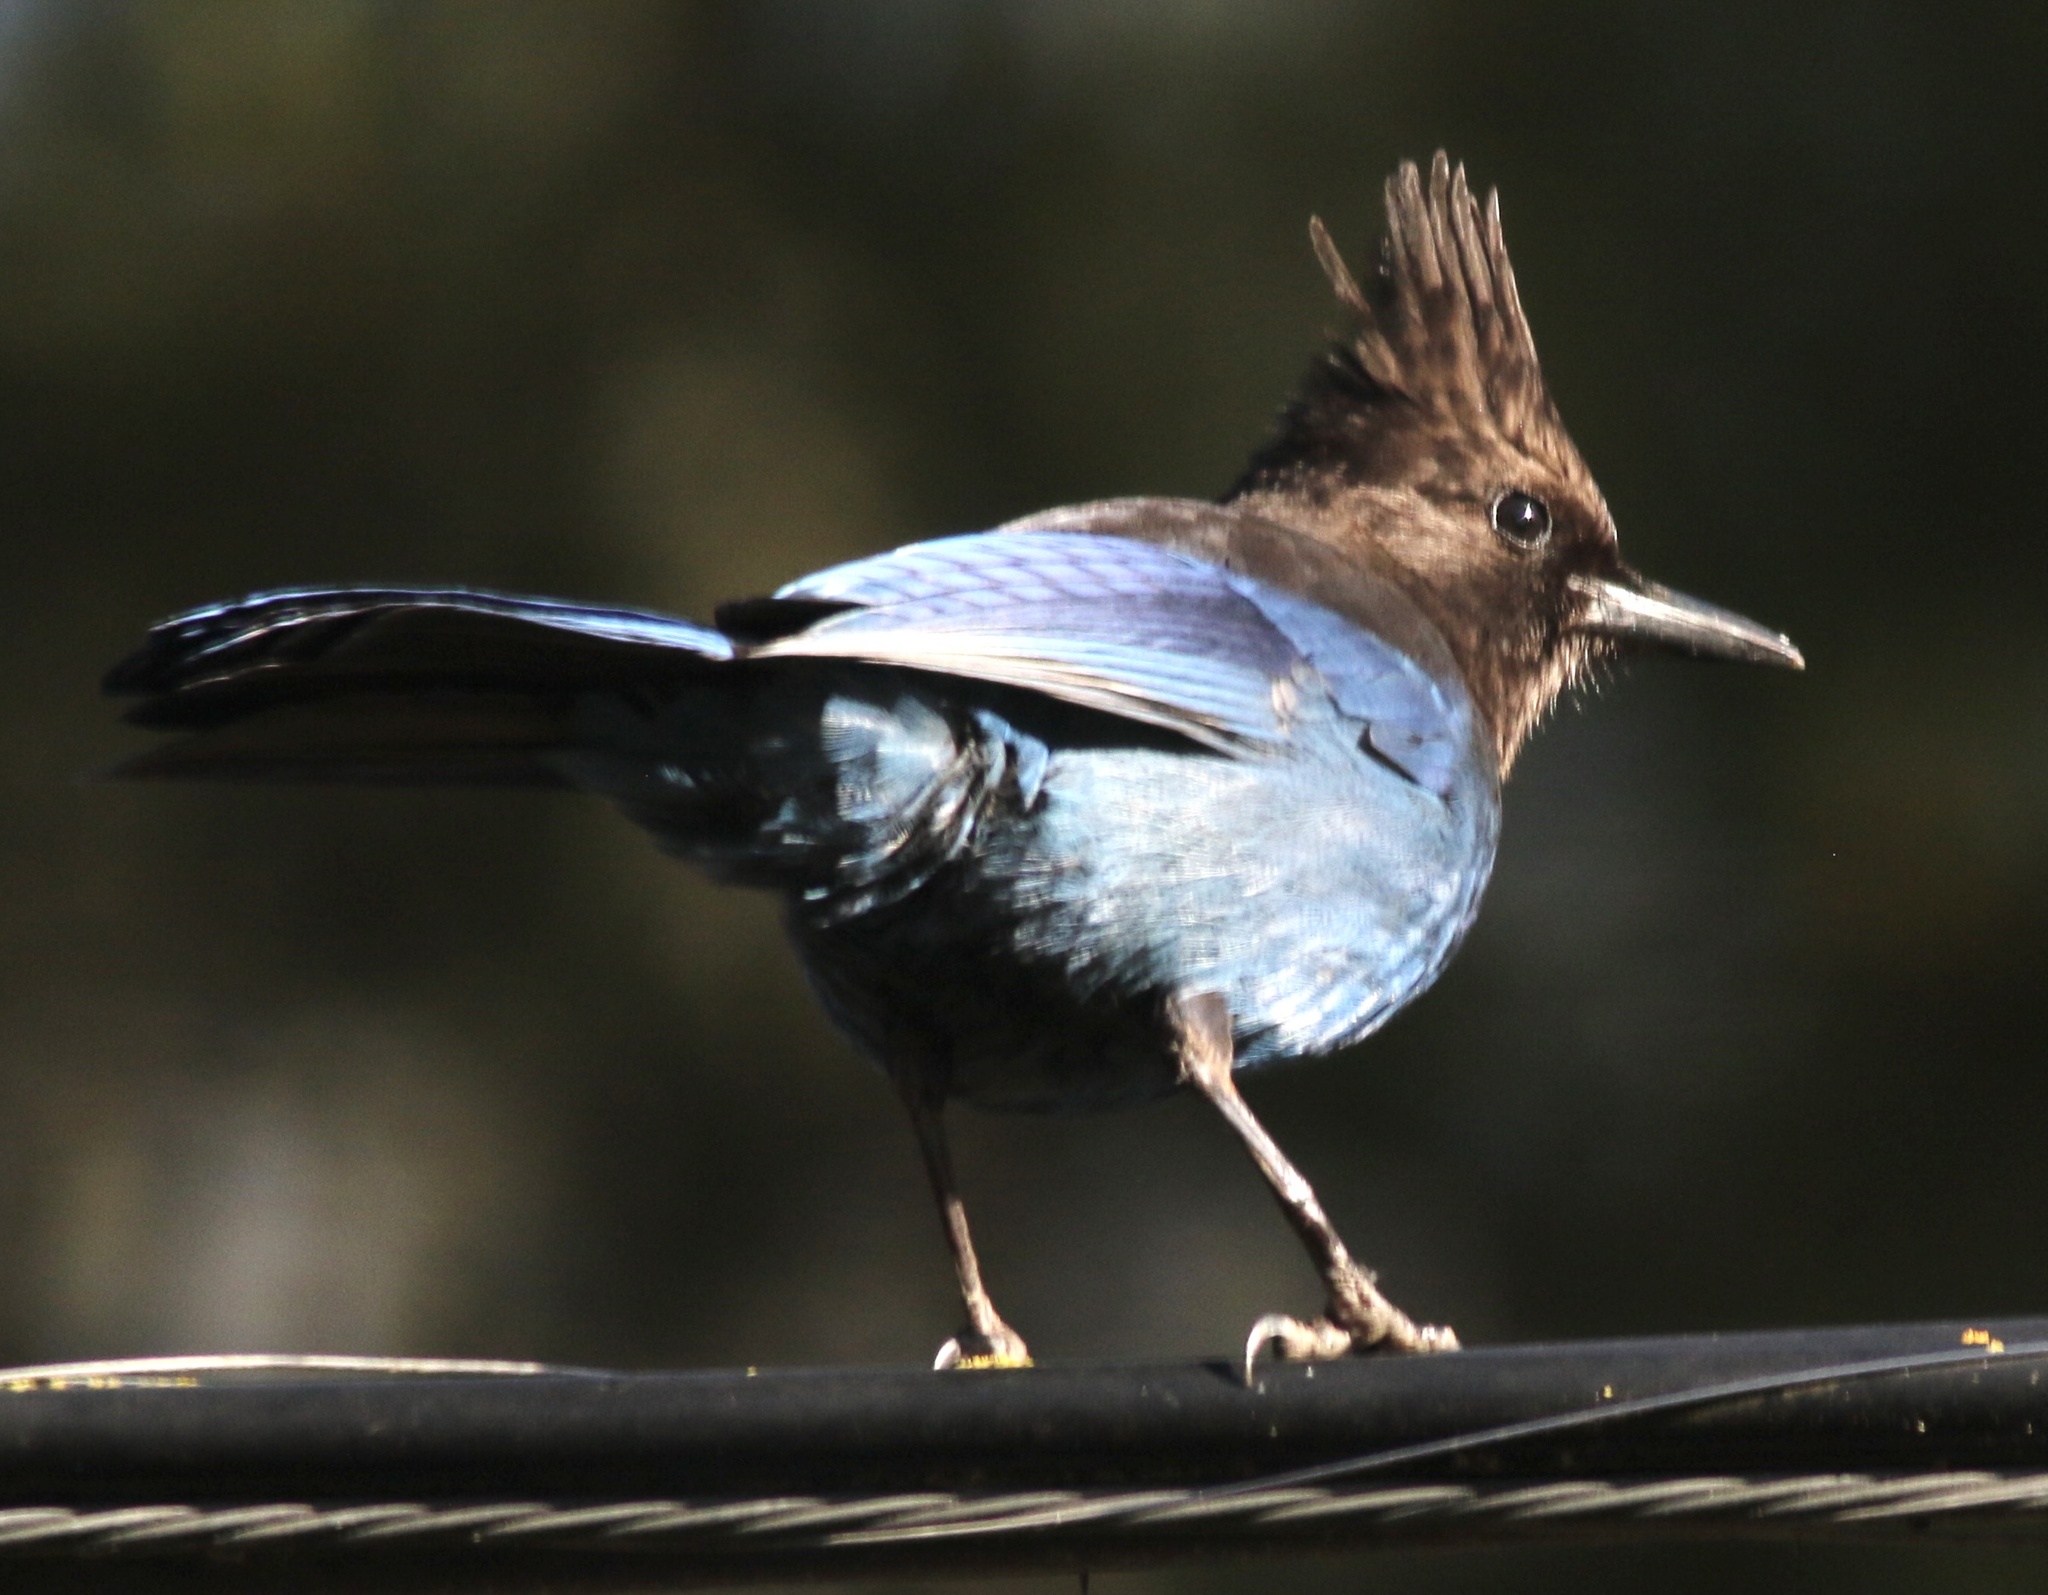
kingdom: Animalia
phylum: Chordata
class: Aves
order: Passeriformes
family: Corvidae
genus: Cyanocitta
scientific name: Cyanocitta stelleri
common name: Steller's jay
